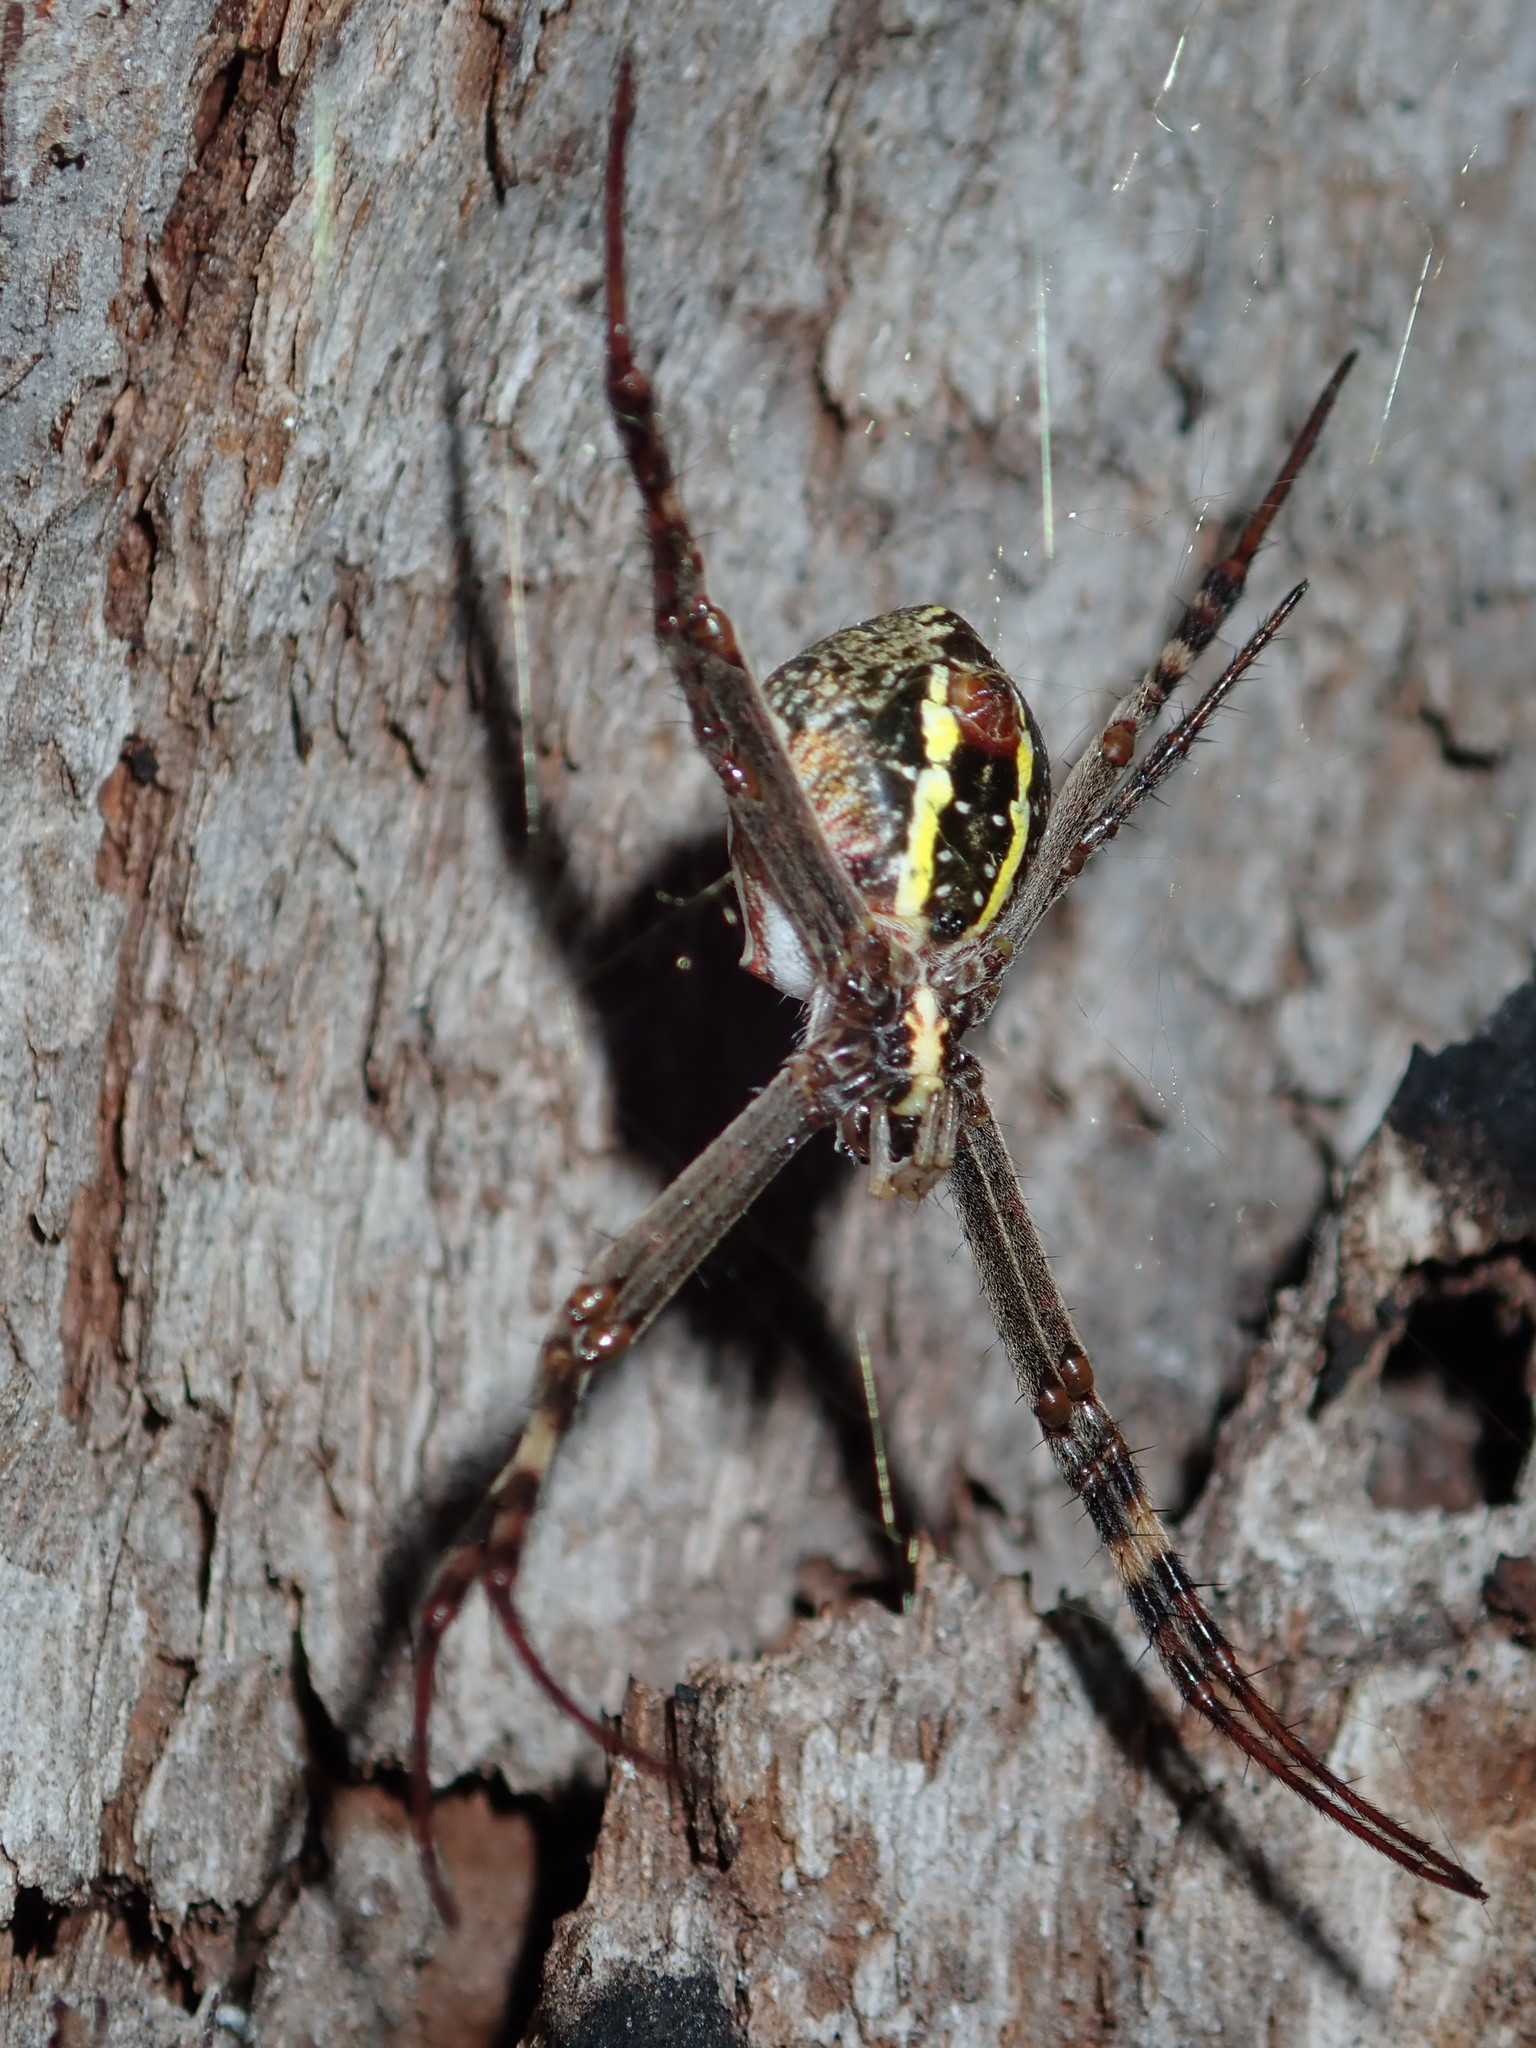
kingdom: Animalia
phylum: Arthropoda
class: Arachnida
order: Araneae
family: Araneidae
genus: Argiope
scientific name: Argiope keyserlingi
